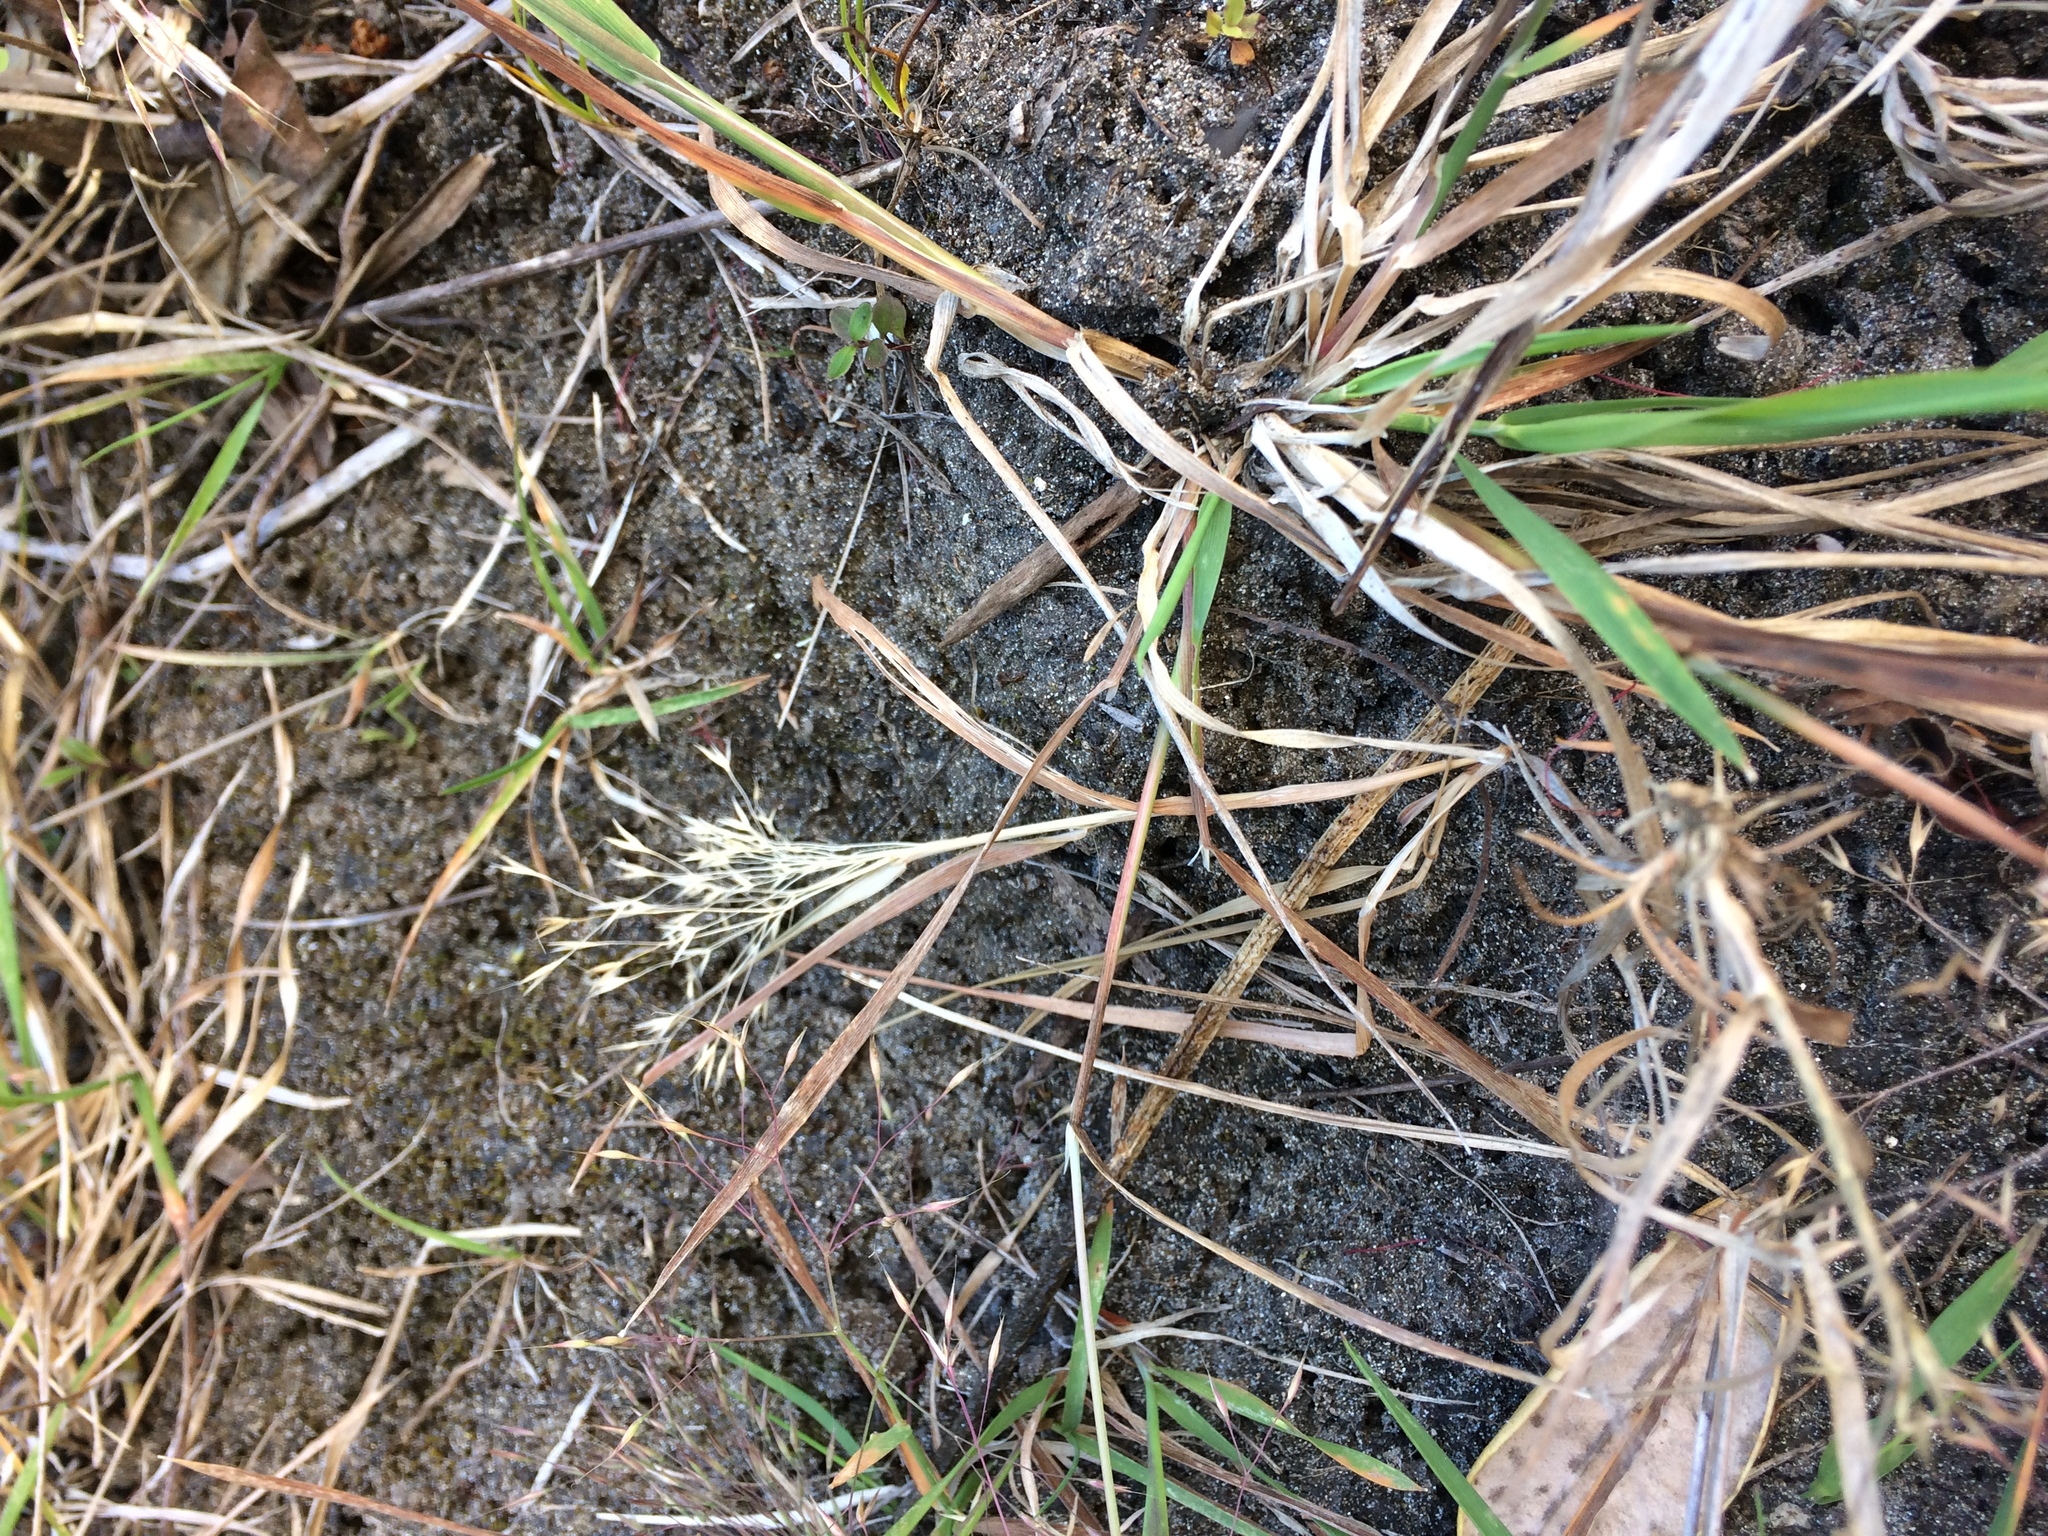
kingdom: Plantae
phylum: Tracheophyta
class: Liliopsida
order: Poales
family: Poaceae
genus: Lachnagrostis
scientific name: Lachnagrostis billardierei
